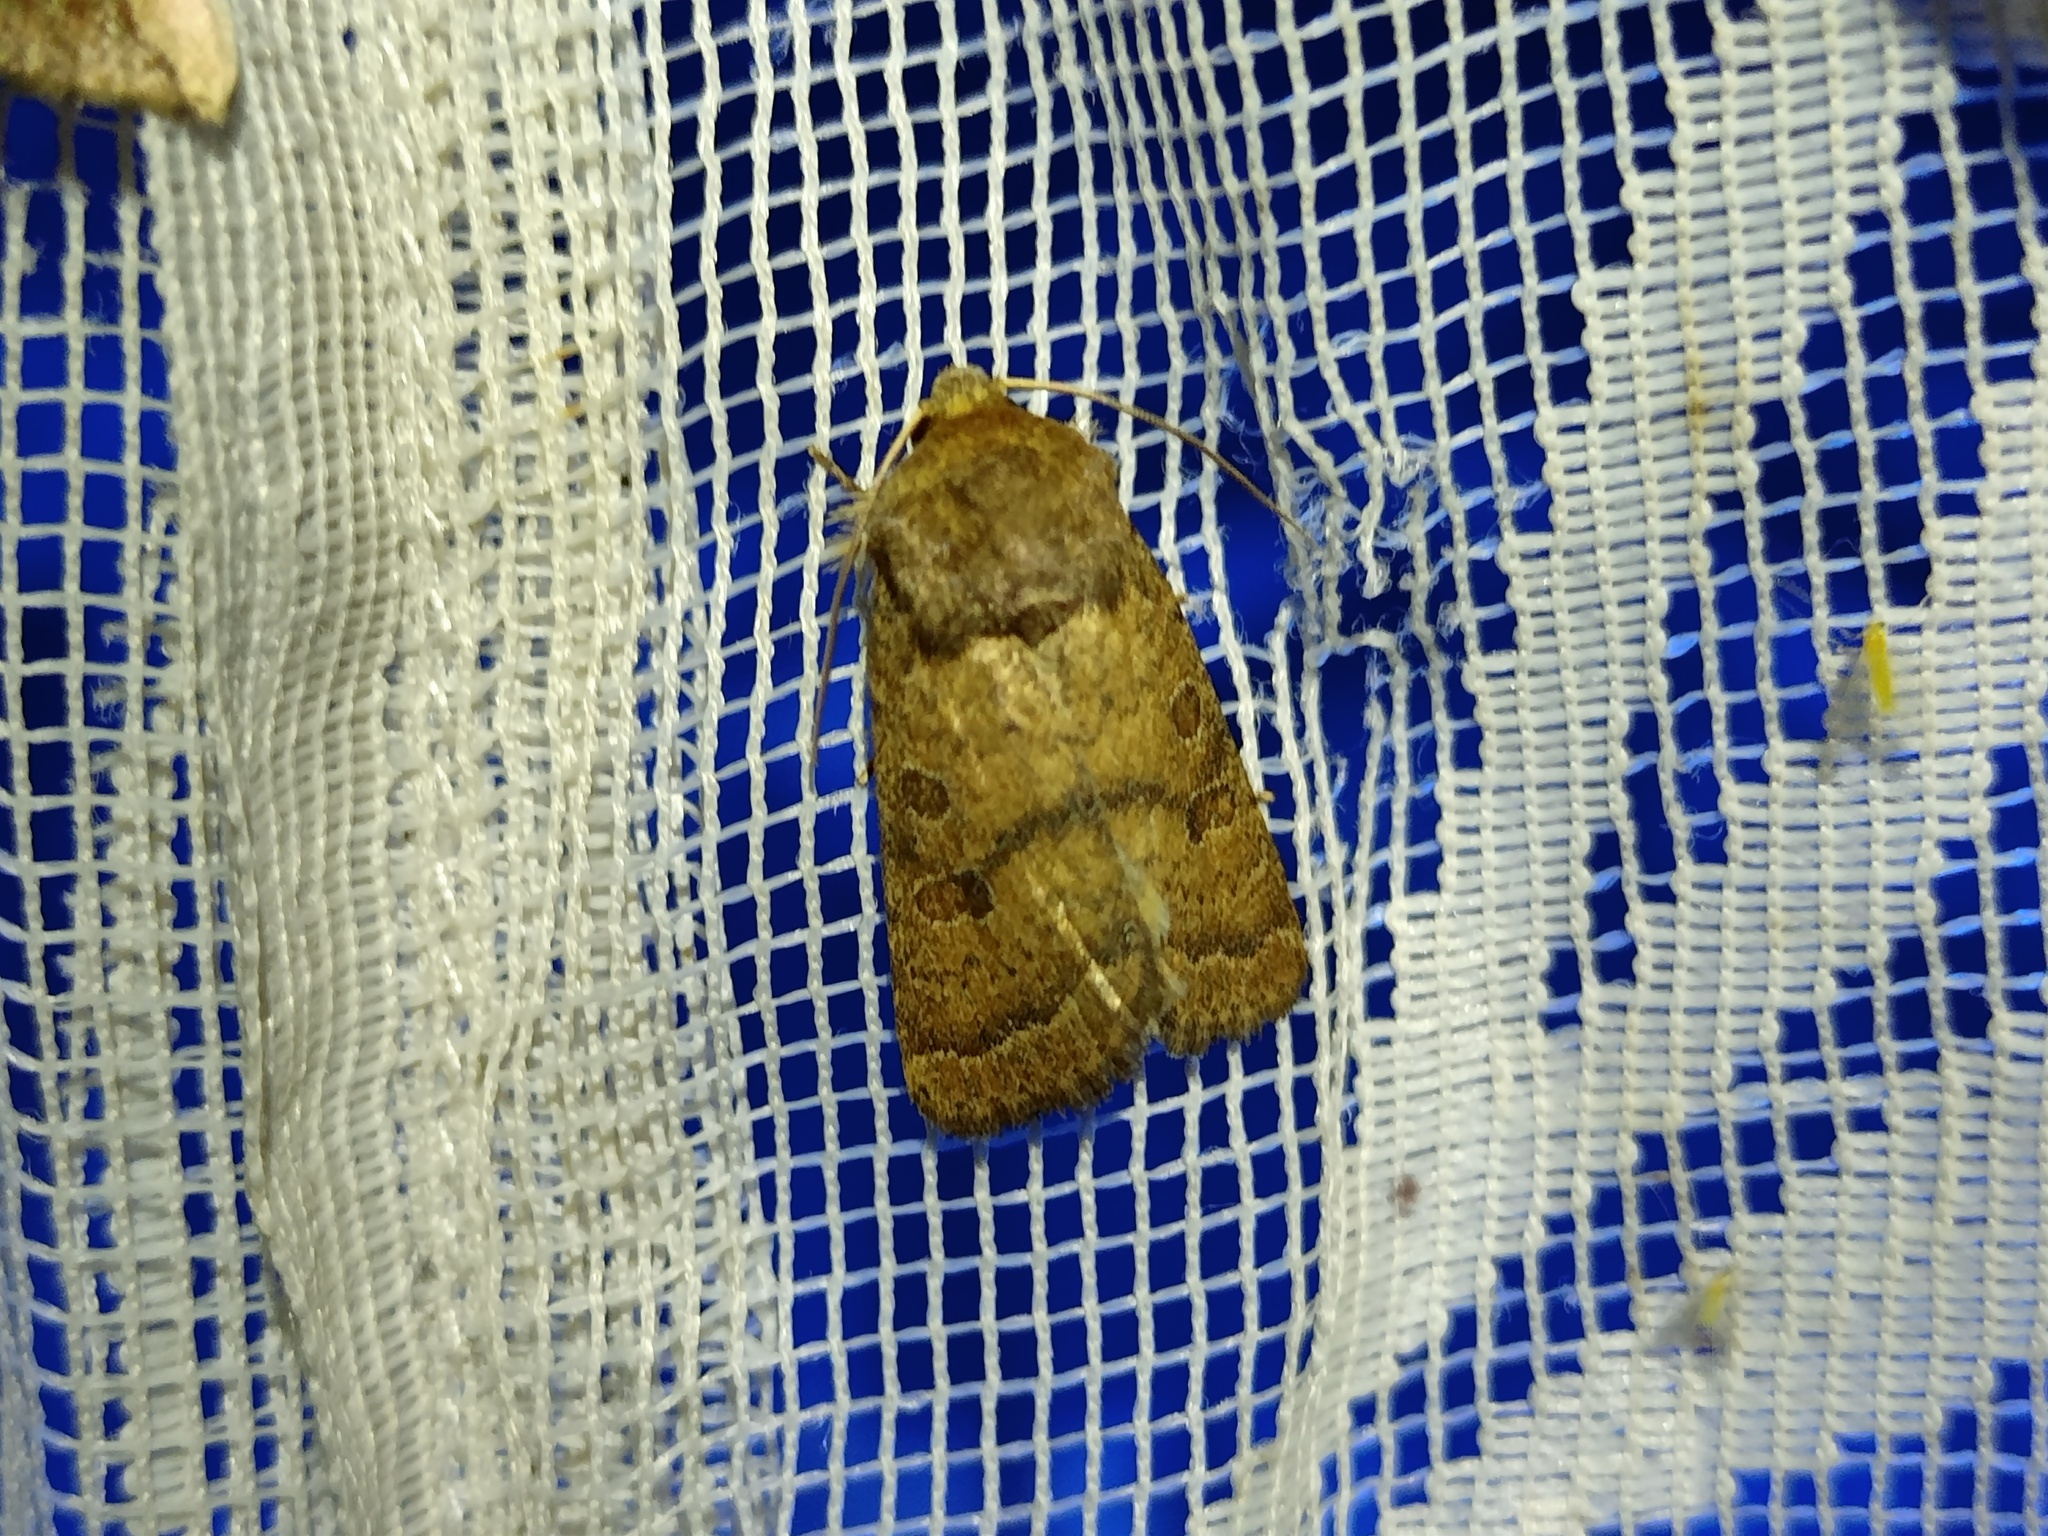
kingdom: Animalia
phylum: Arthropoda
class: Insecta
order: Lepidoptera
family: Noctuidae
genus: Hoplodrina
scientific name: Hoplodrina octogenaria
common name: Uncertain
